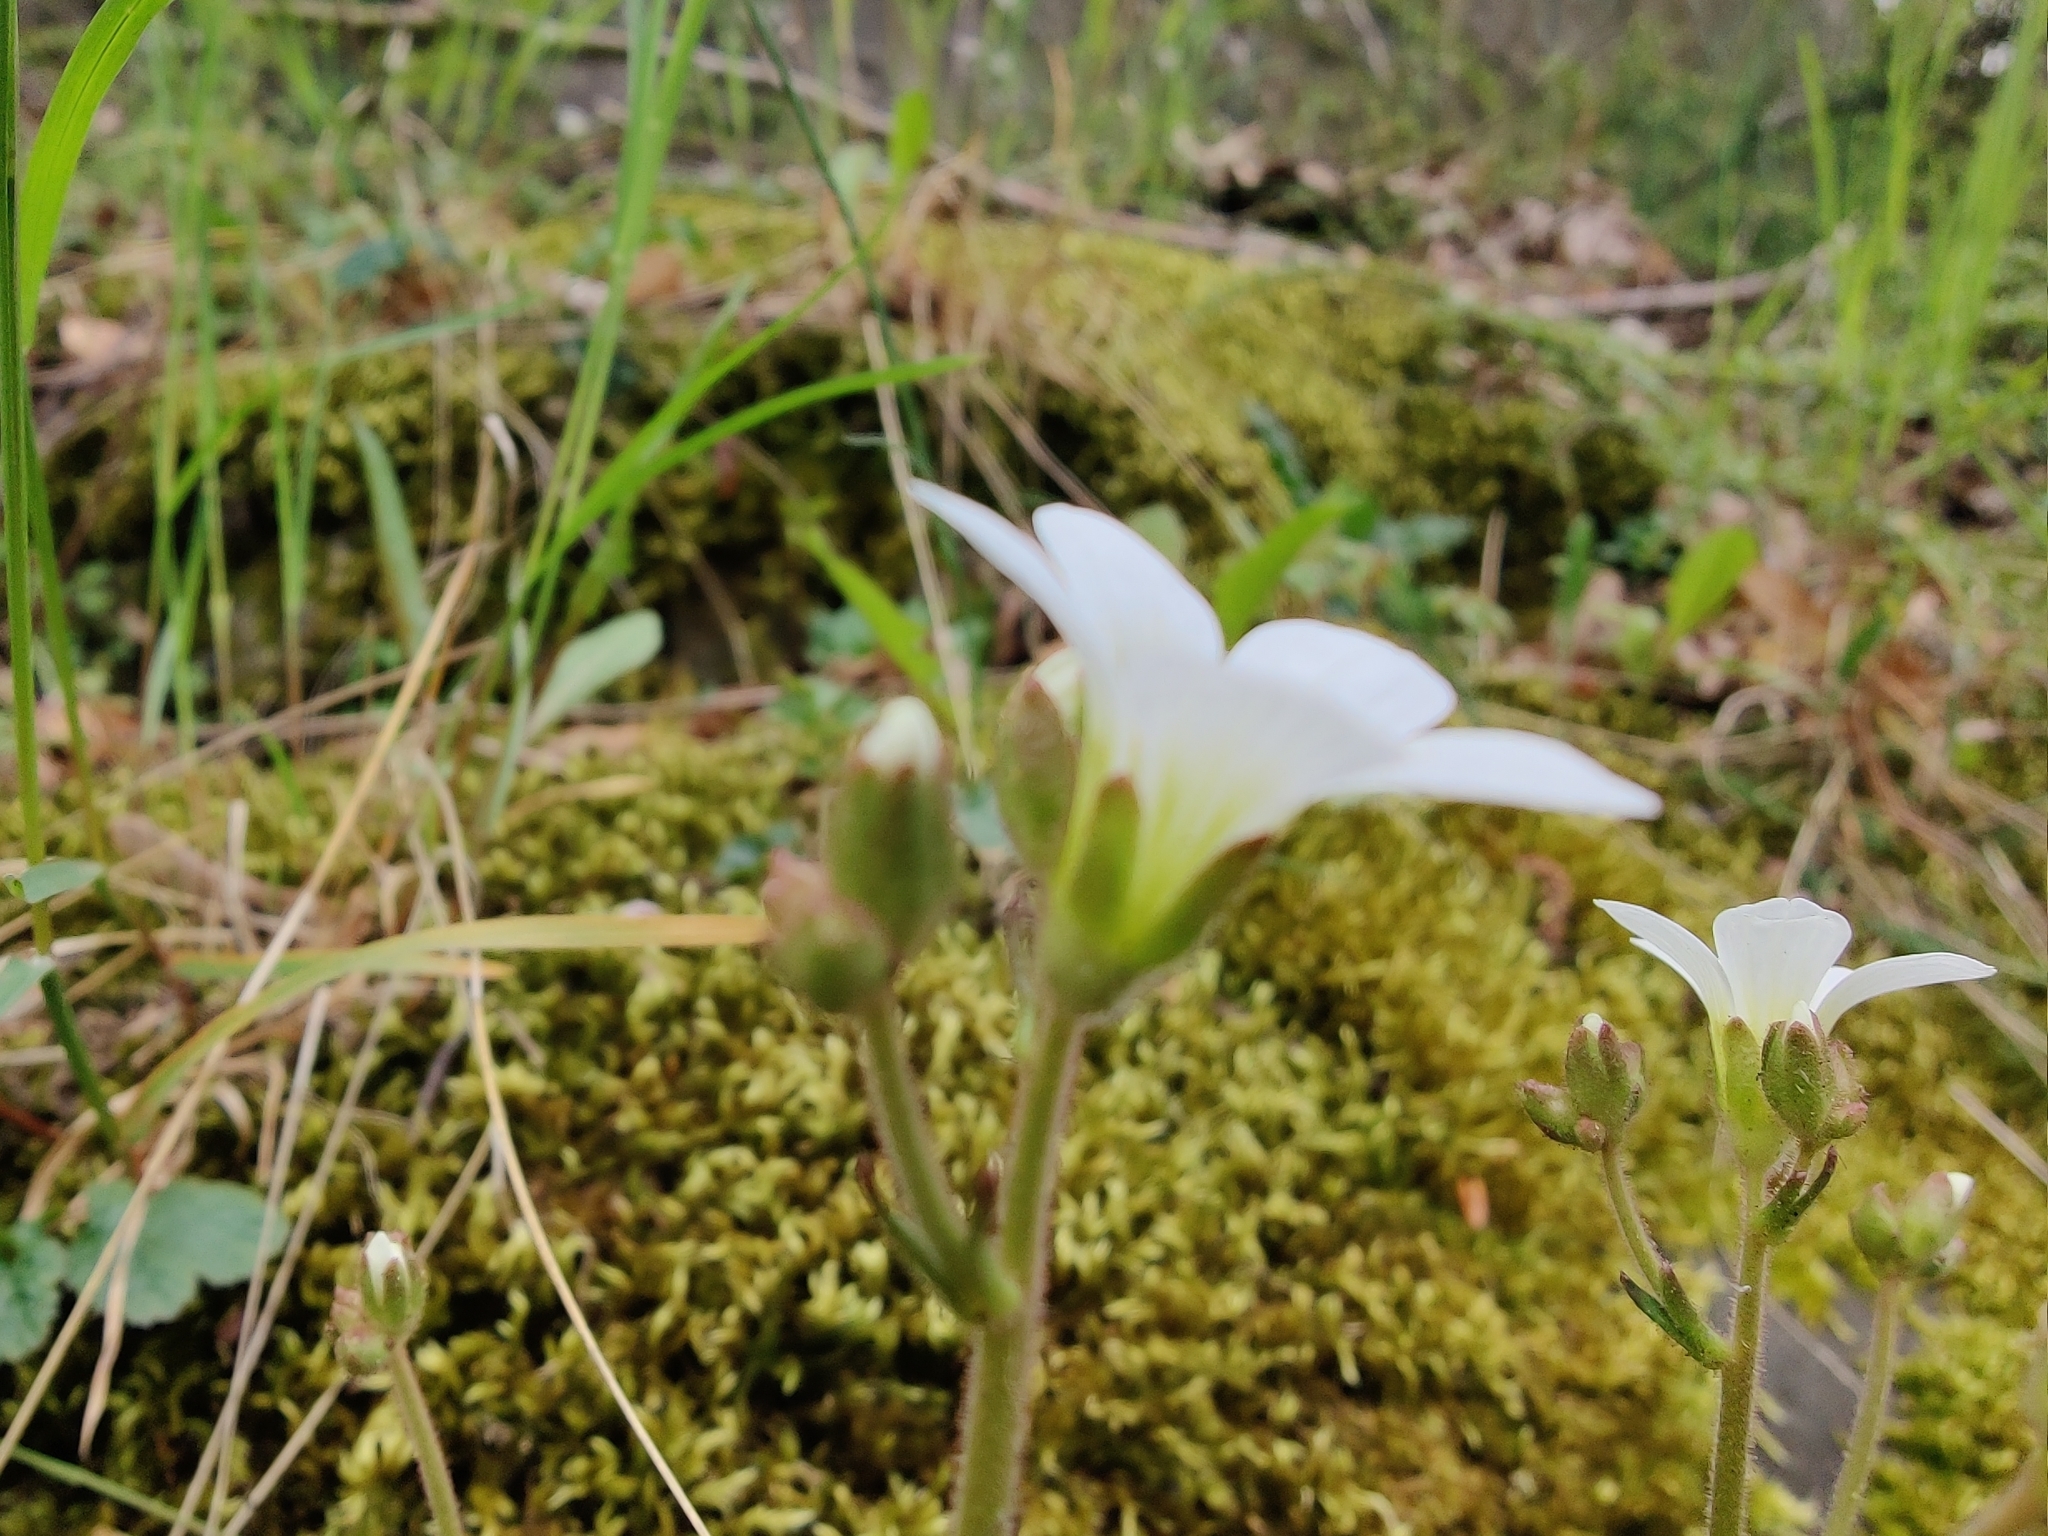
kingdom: Plantae
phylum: Tracheophyta
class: Magnoliopsida
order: Saxifragales
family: Saxifragaceae
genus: Saxifraga
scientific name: Saxifraga granulata
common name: Meadow saxifrage
